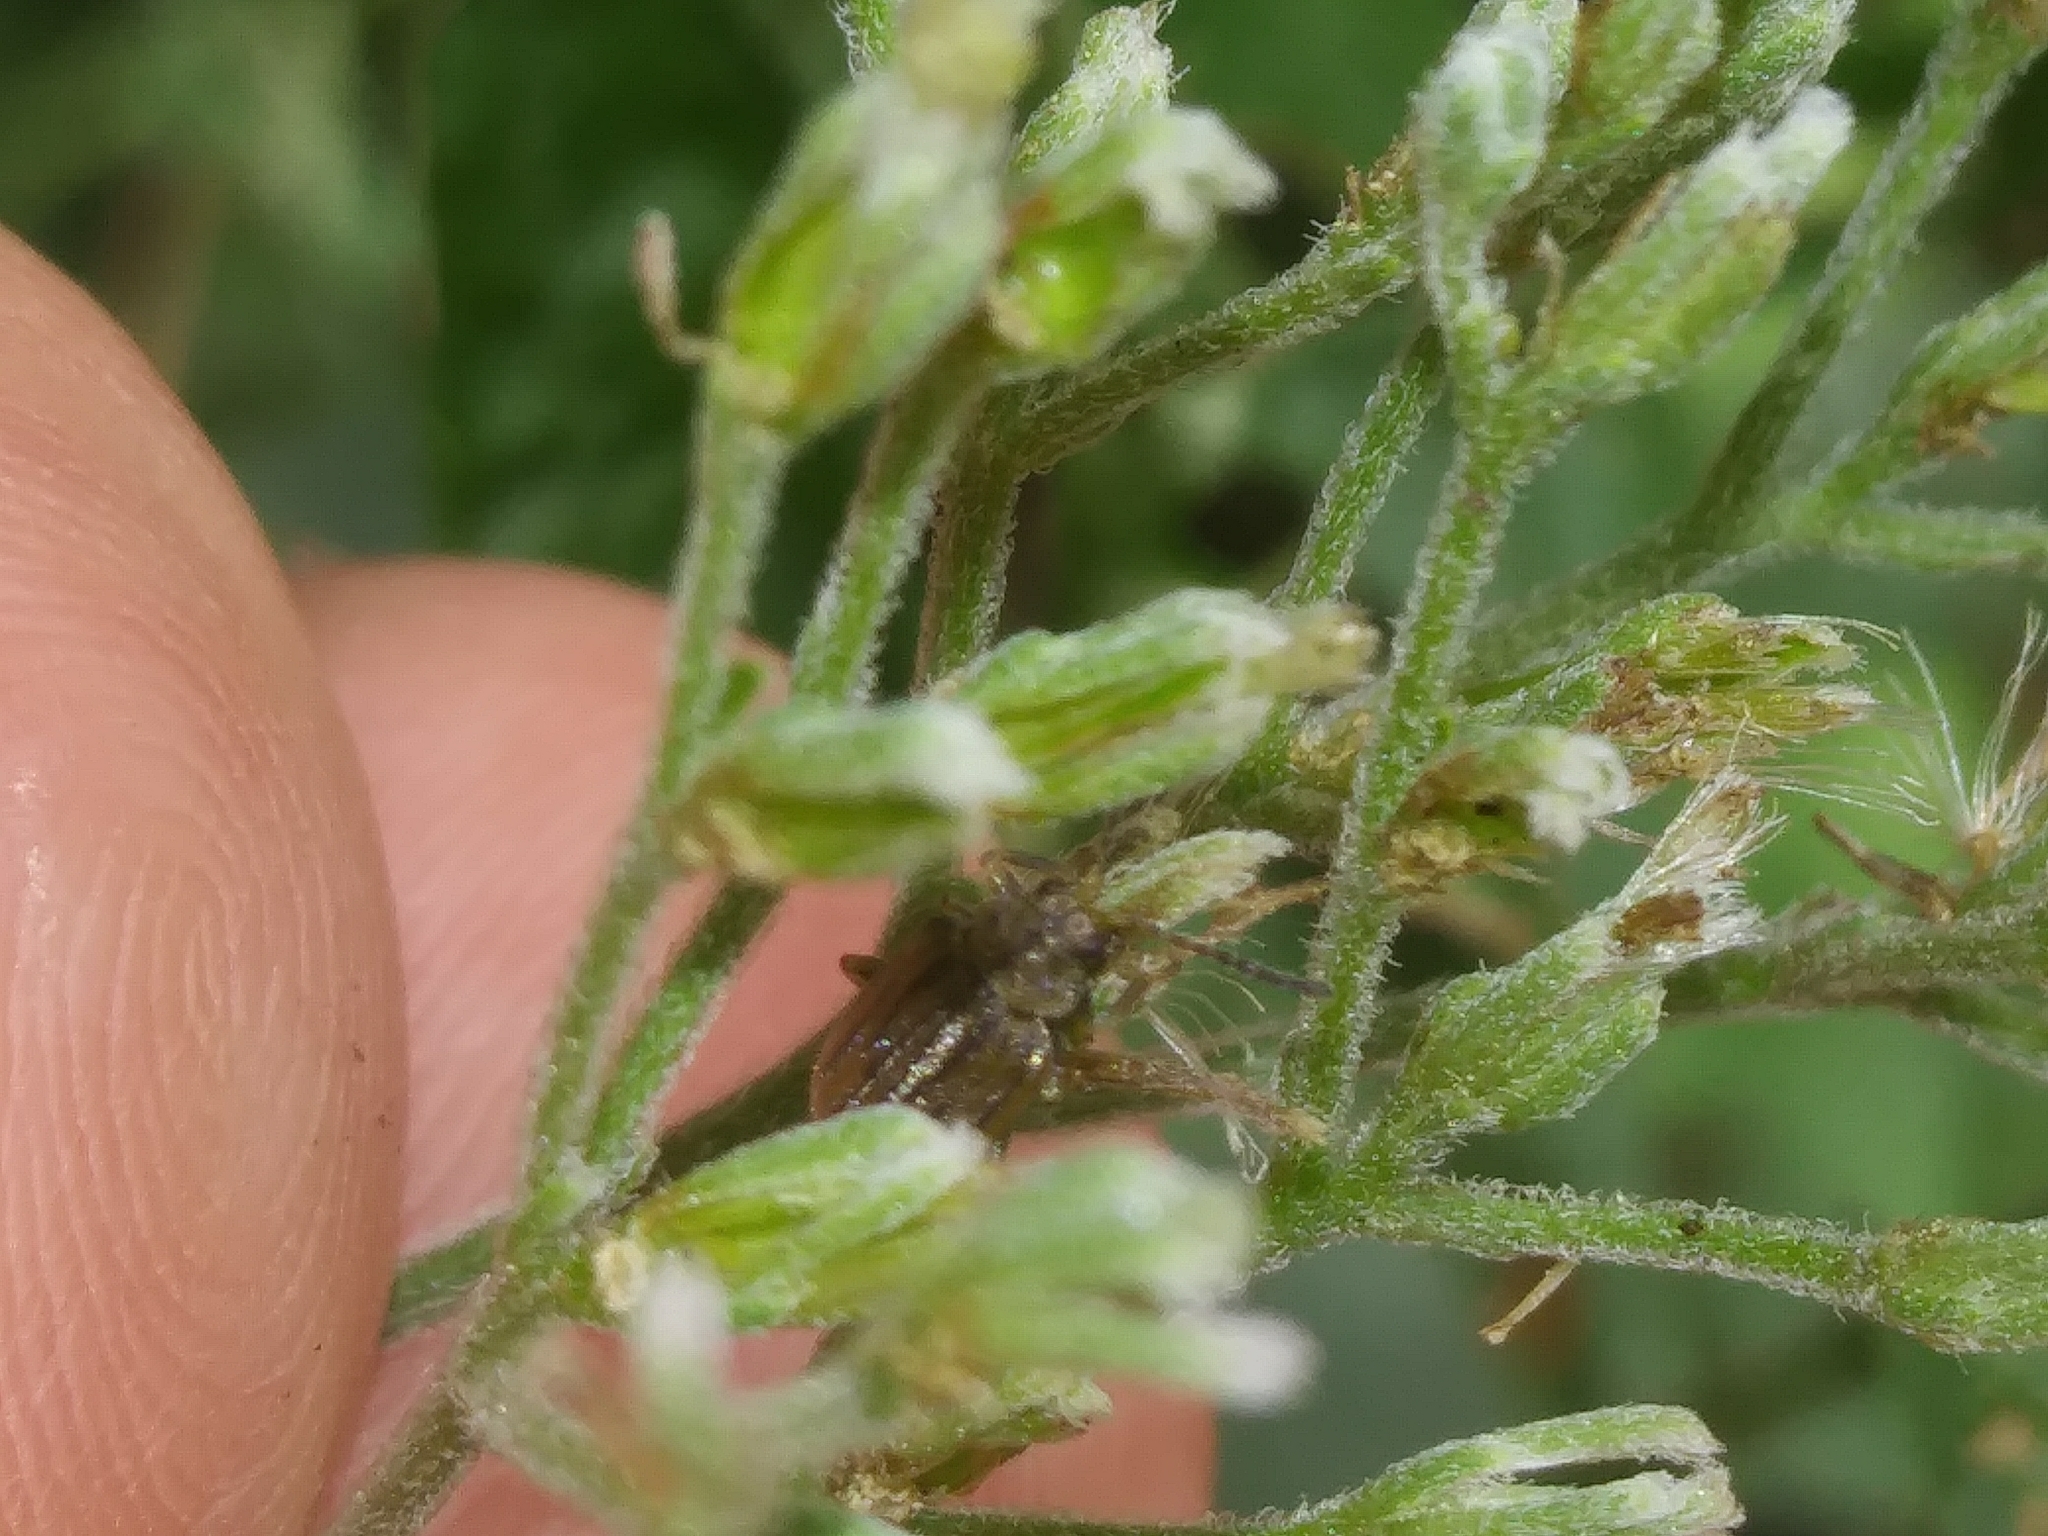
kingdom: Animalia
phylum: Arthropoda
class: Insecta
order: Coleoptera
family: Chrysomelidae
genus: Ophraella
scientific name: Ophraella communa
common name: Ragweed leaf beetle
